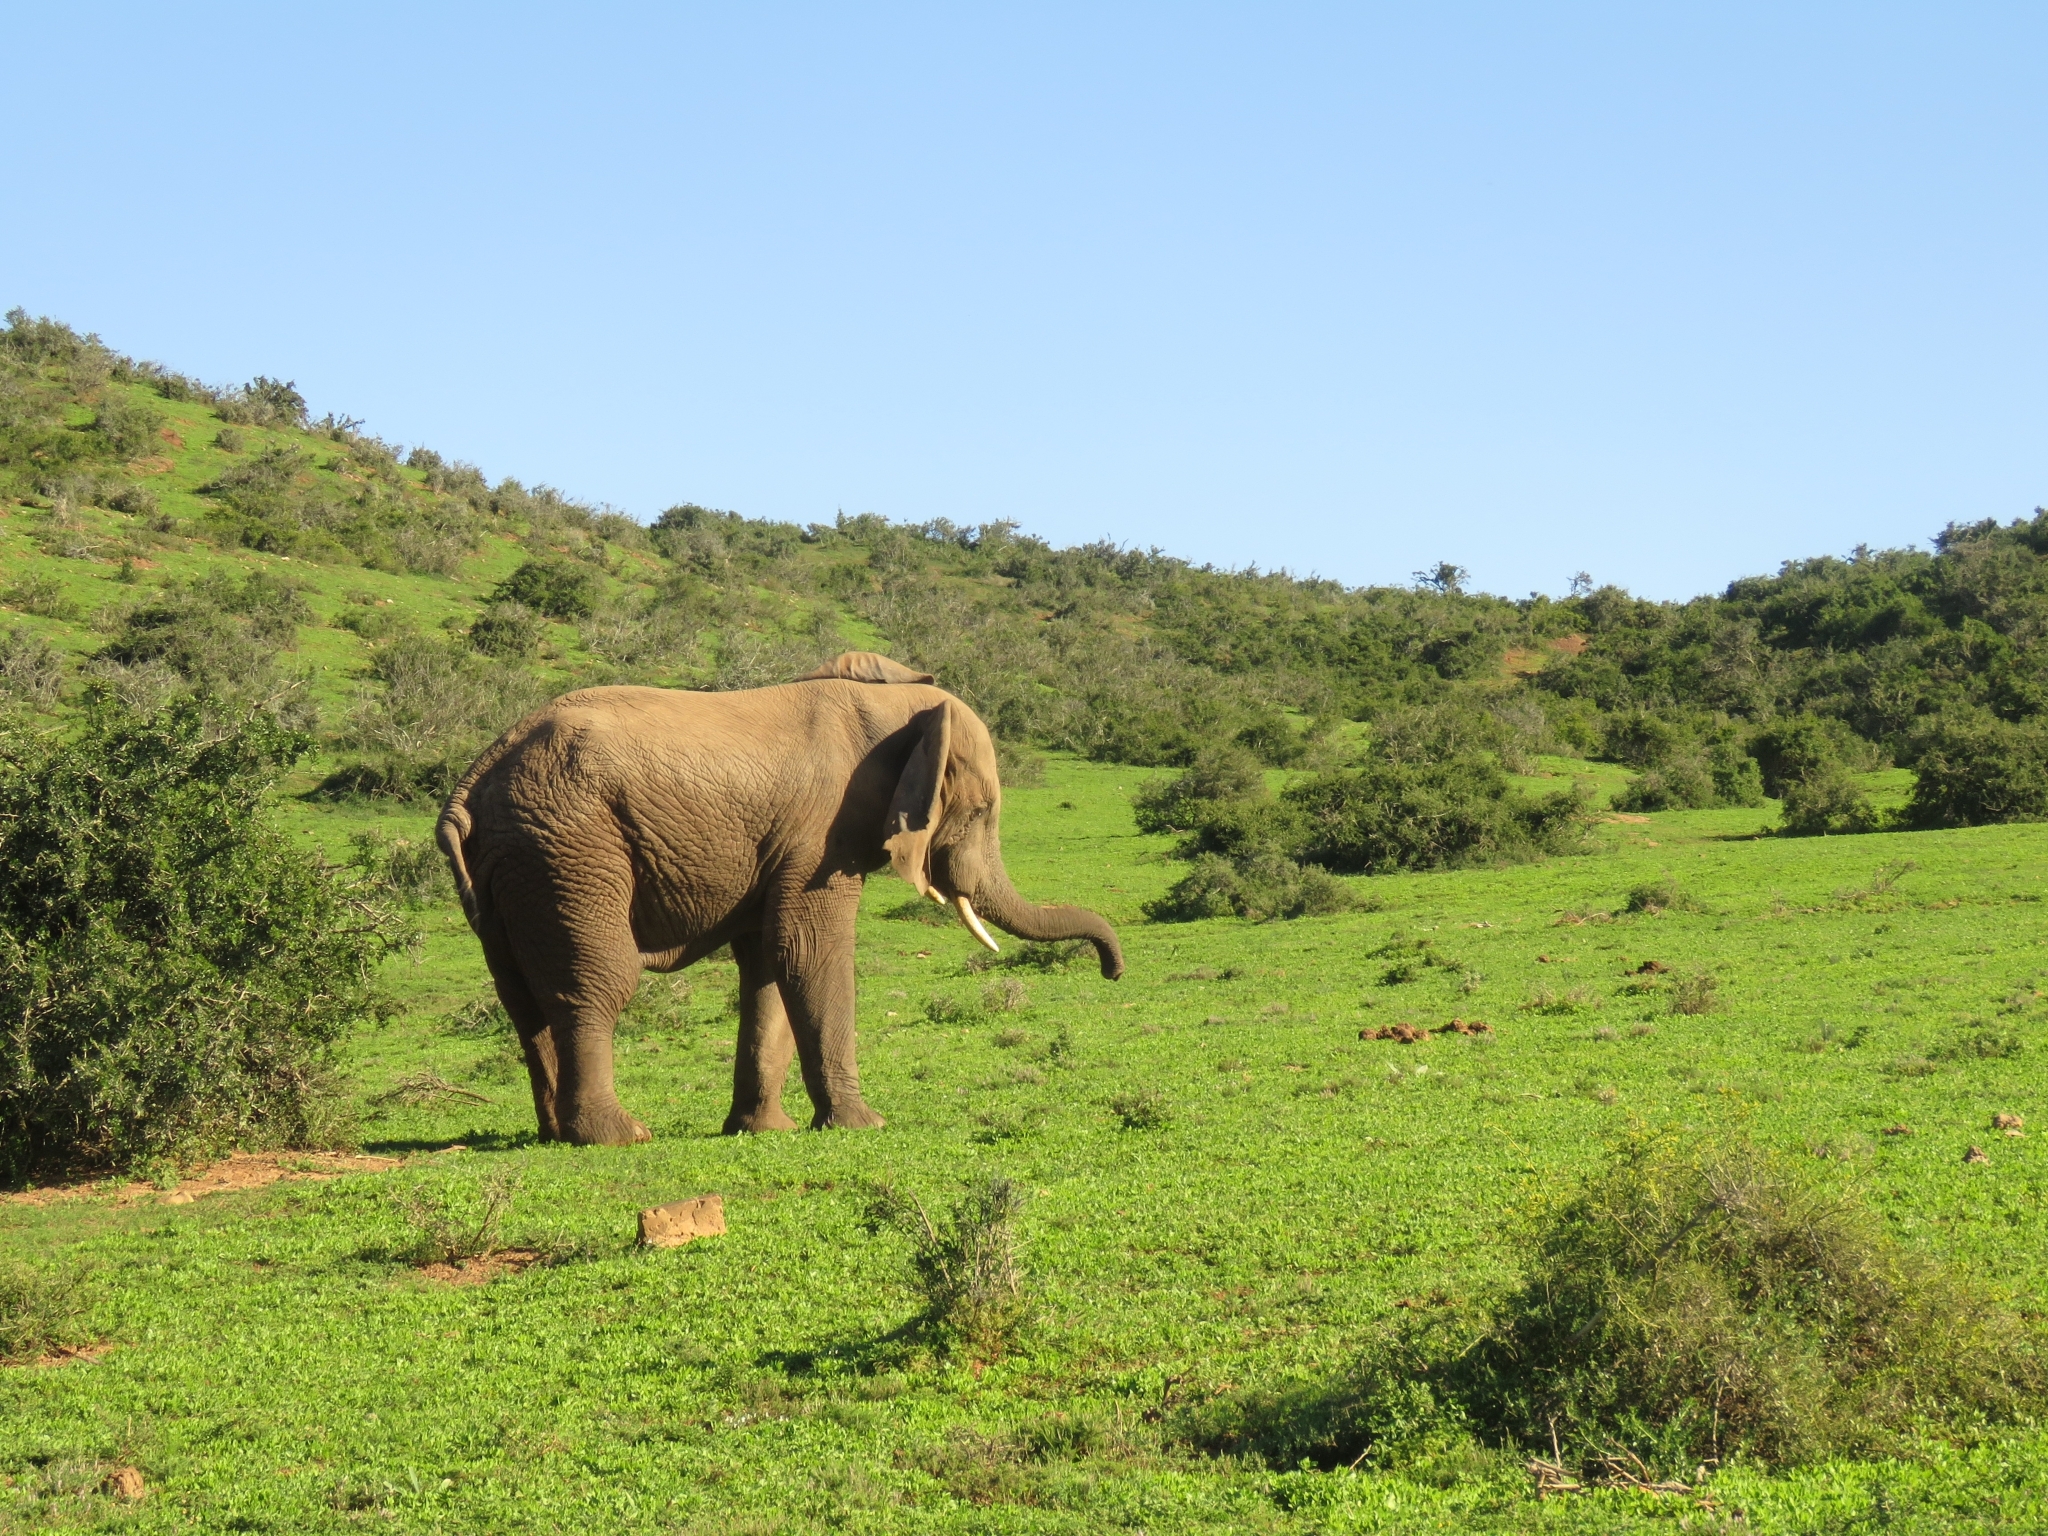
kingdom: Animalia
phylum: Chordata
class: Mammalia
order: Proboscidea
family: Elephantidae
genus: Loxodonta
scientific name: Loxodonta africana
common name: African elephant
